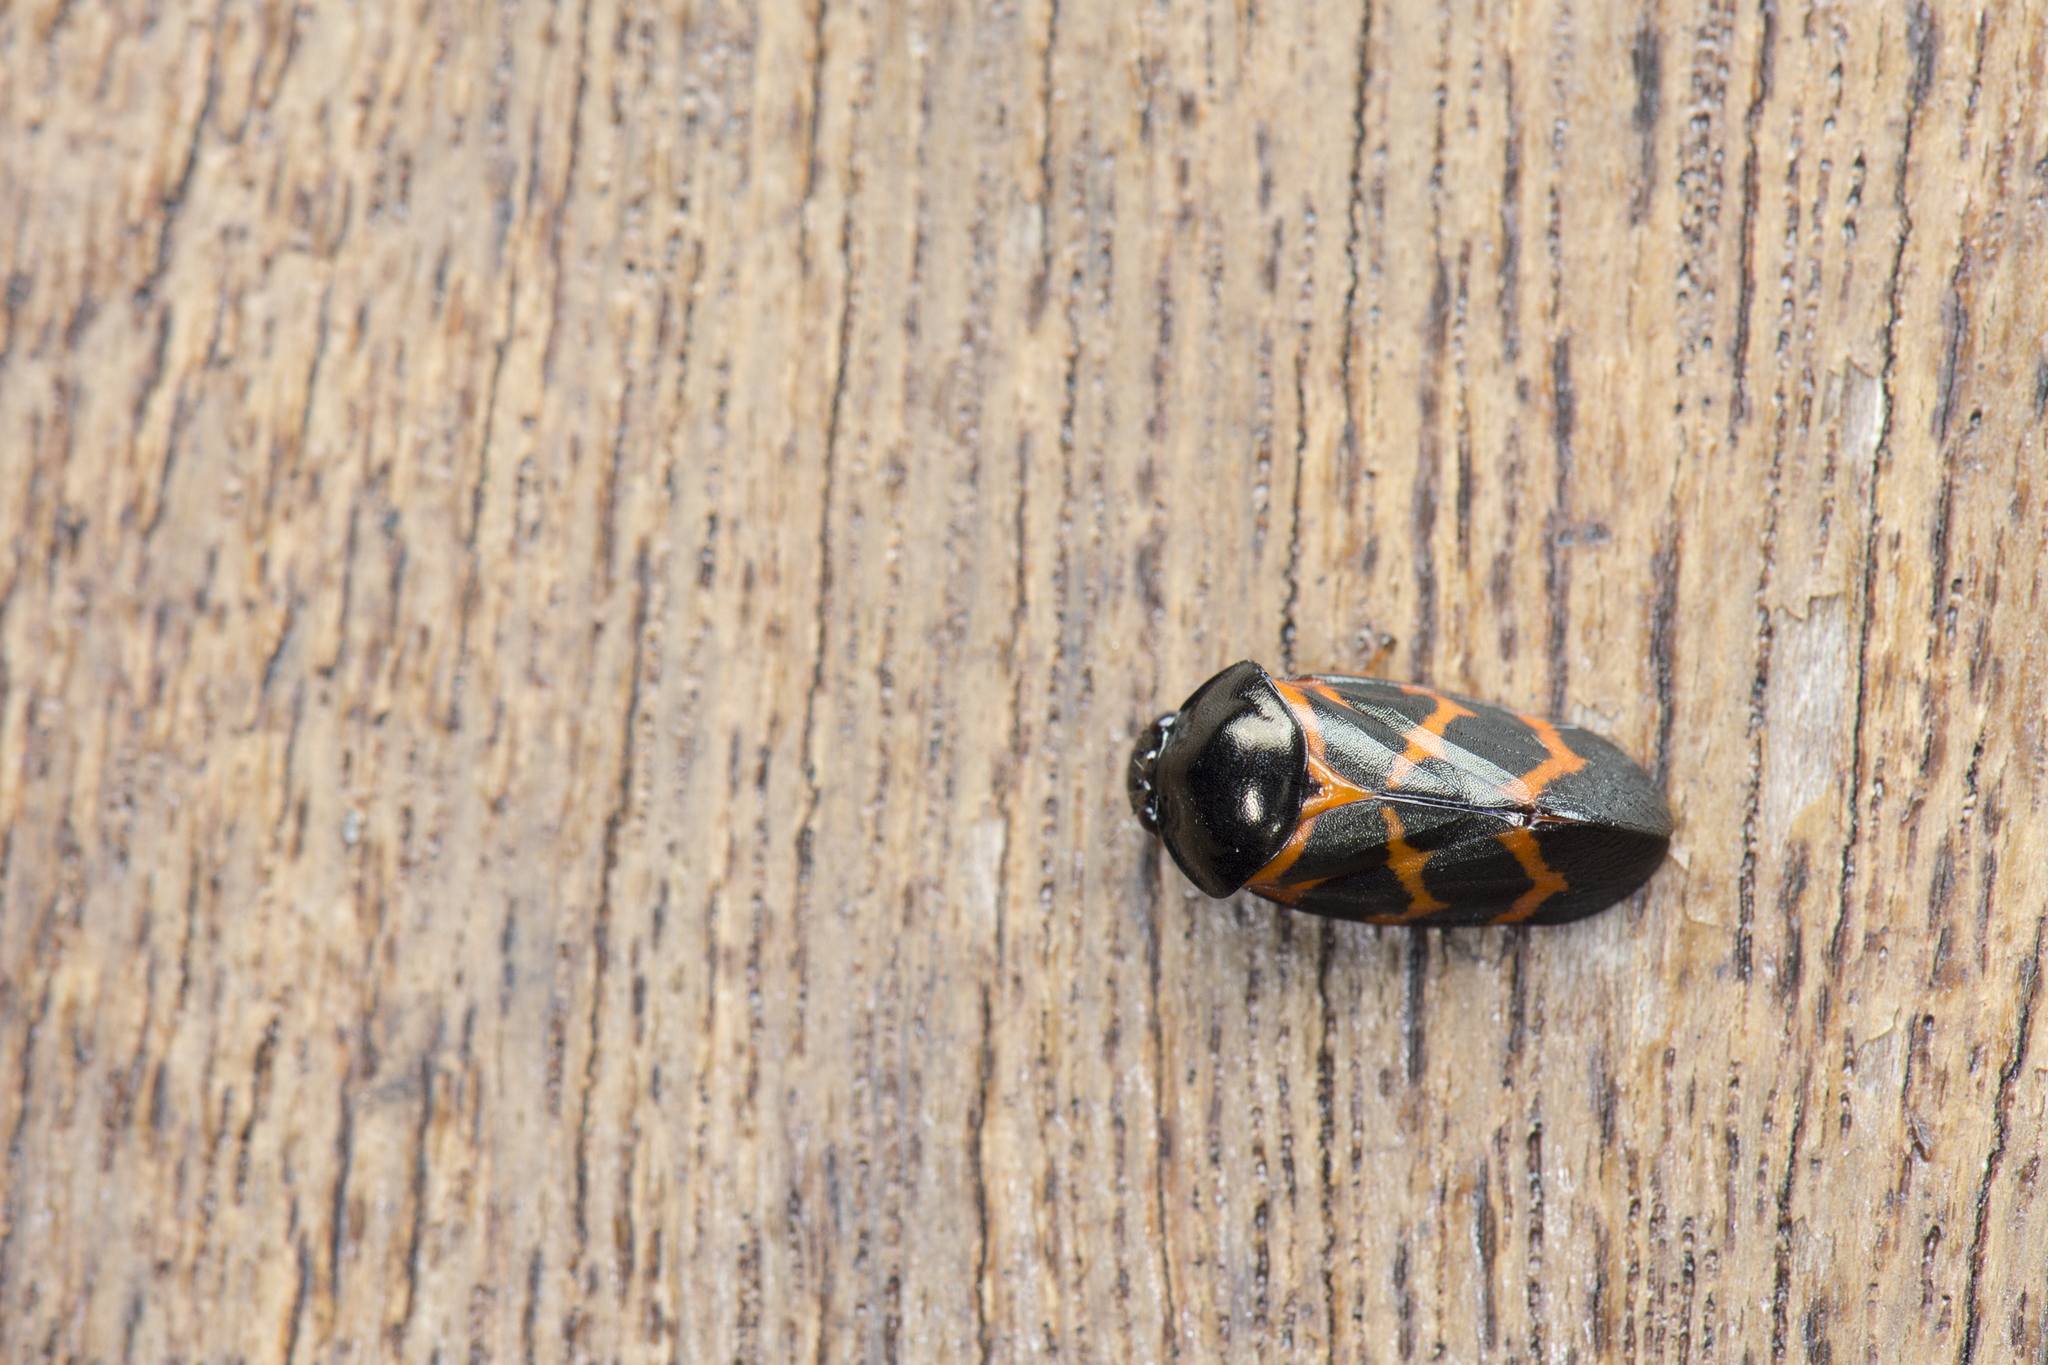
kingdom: Animalia
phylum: Arthropoda
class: Insecta
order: Hemiptera
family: Cercopidae
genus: Kanoscarta
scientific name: Kanoscarta kanoniella
